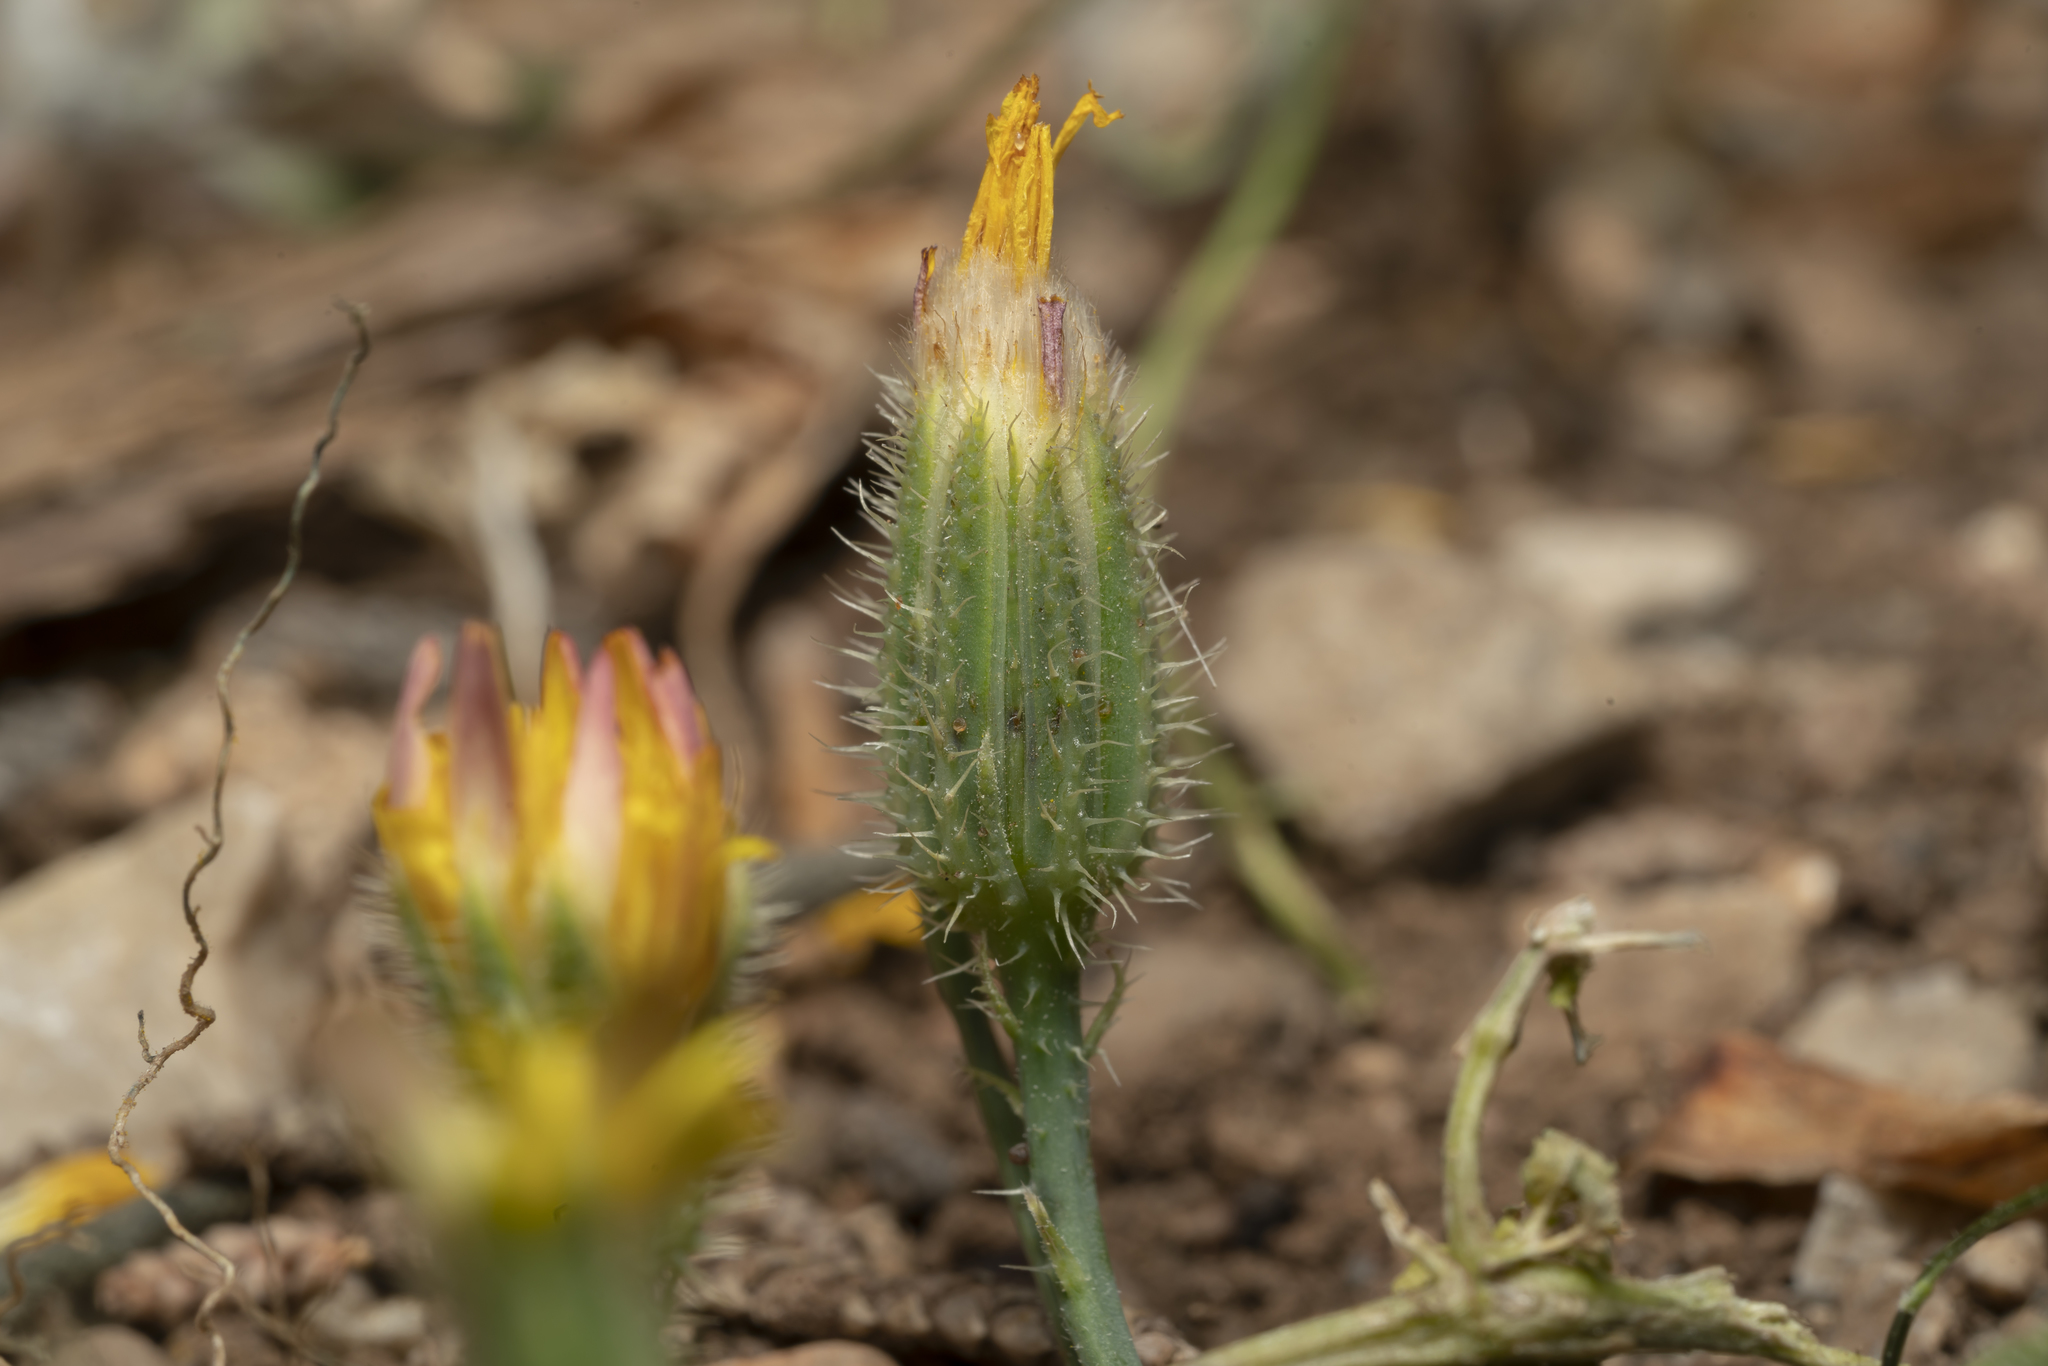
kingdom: Plantae
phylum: Tracheophyta
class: Magnoliopsida
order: Asterales
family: Asteraceae
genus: Achyrophorus
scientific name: Achyrophorus valdesii
